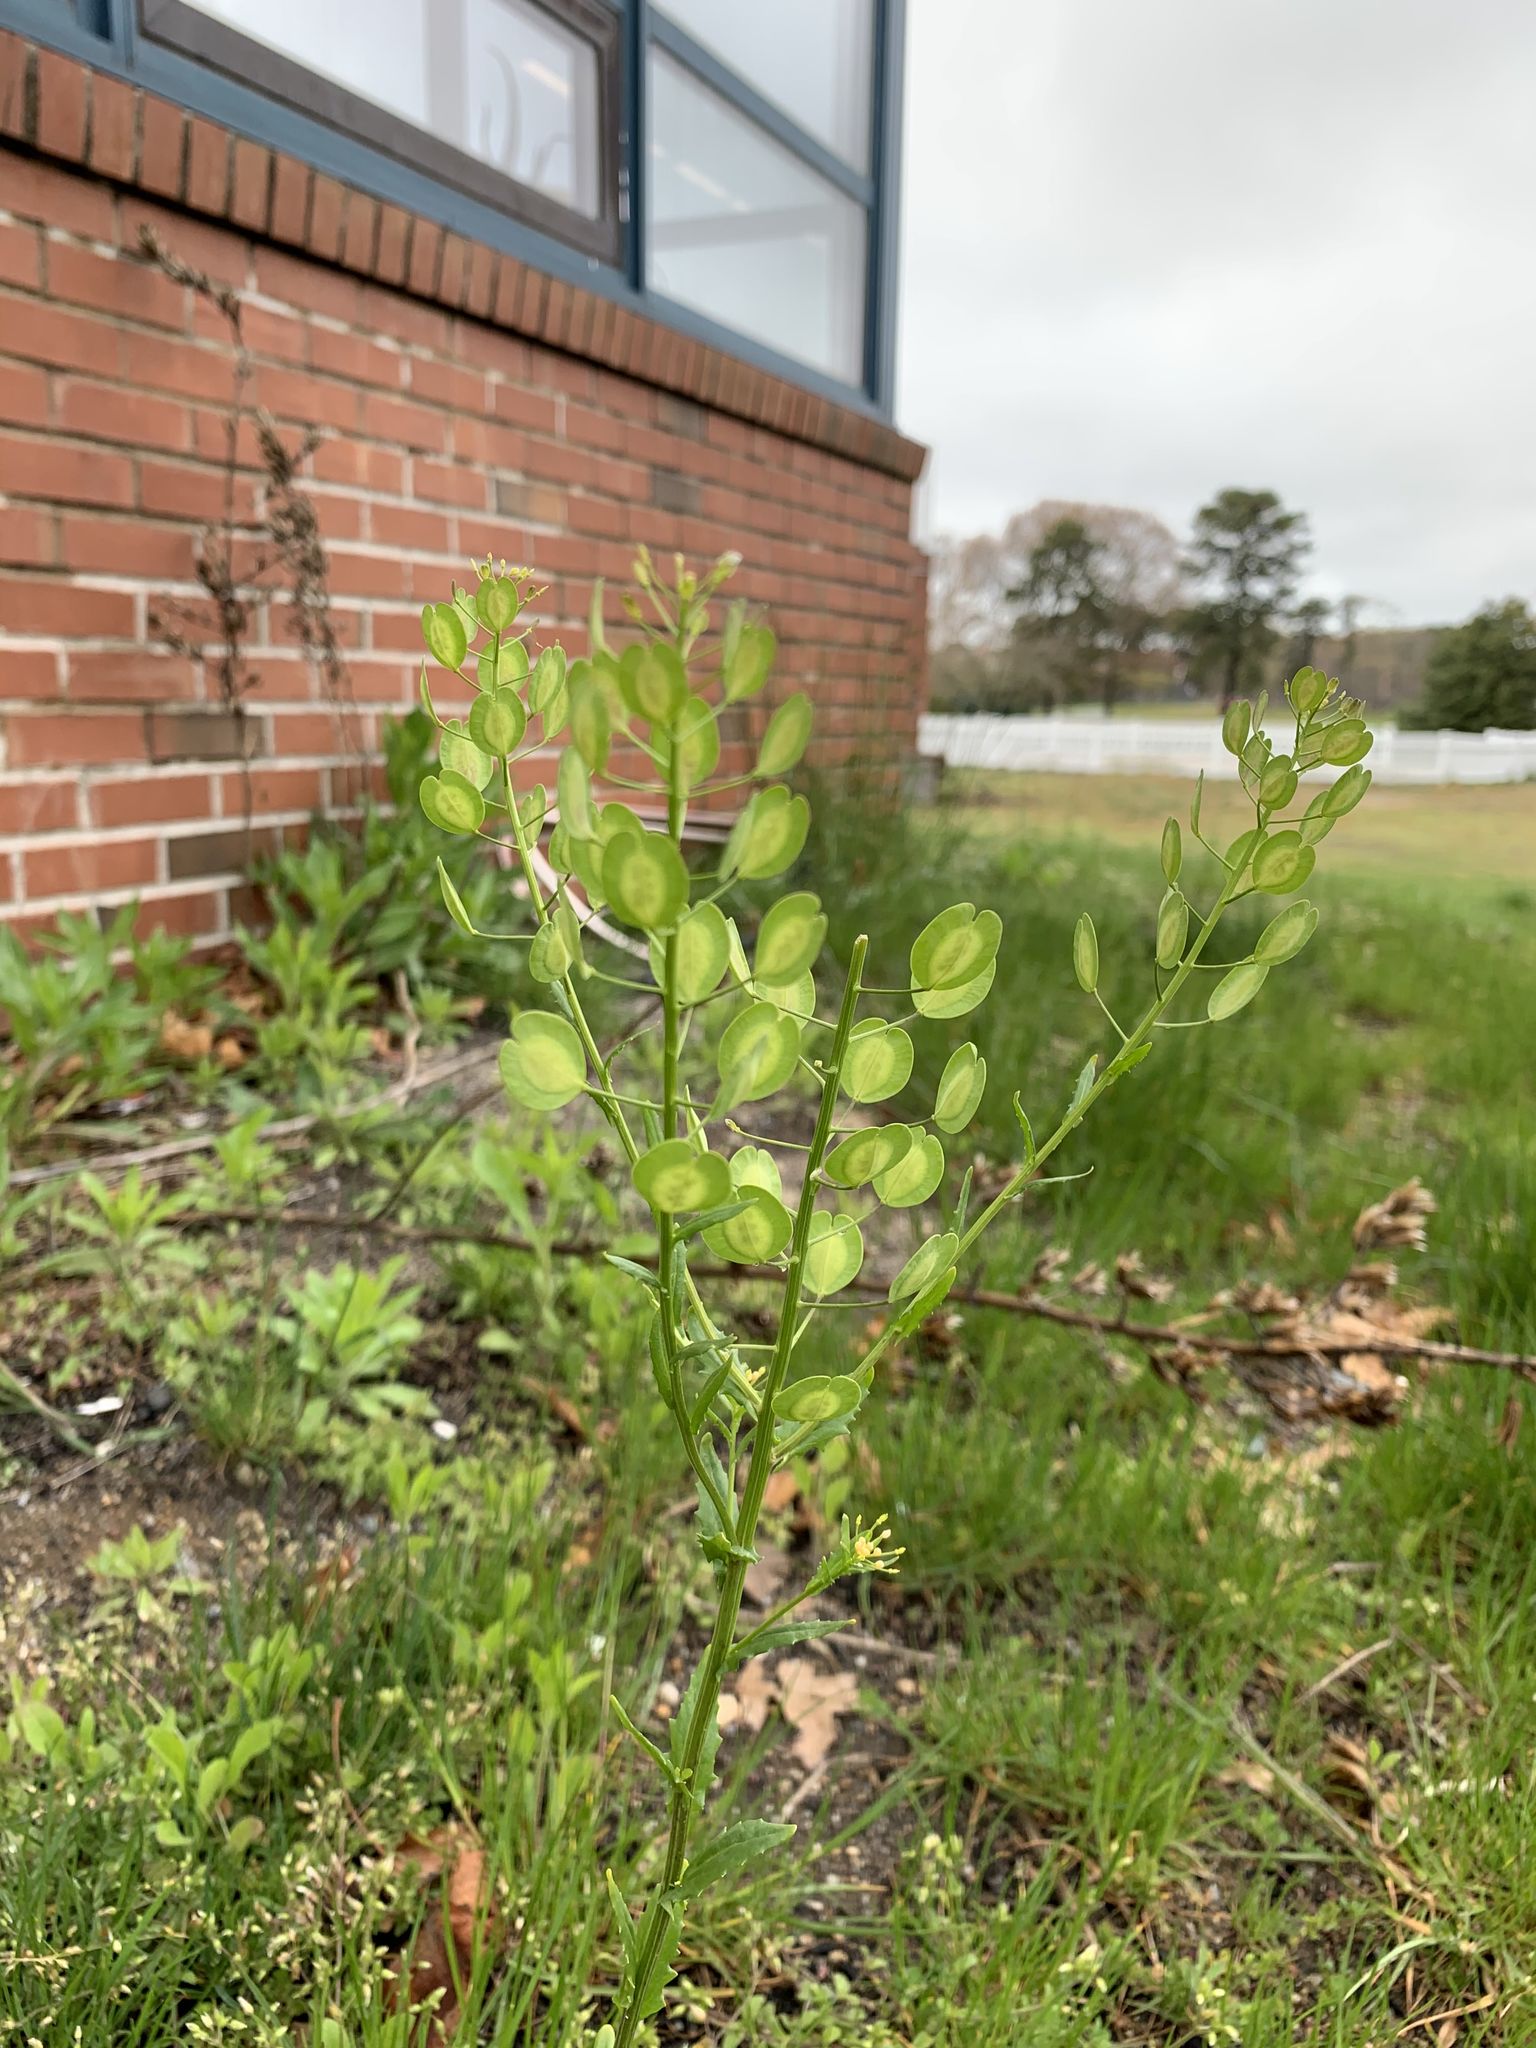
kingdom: Plantae
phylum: Tracheophyta
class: Magnoliopsida
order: Brassicales
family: Brassicaceae
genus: Thlaspi
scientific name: Thlaspi arvense
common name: Field pennycress
